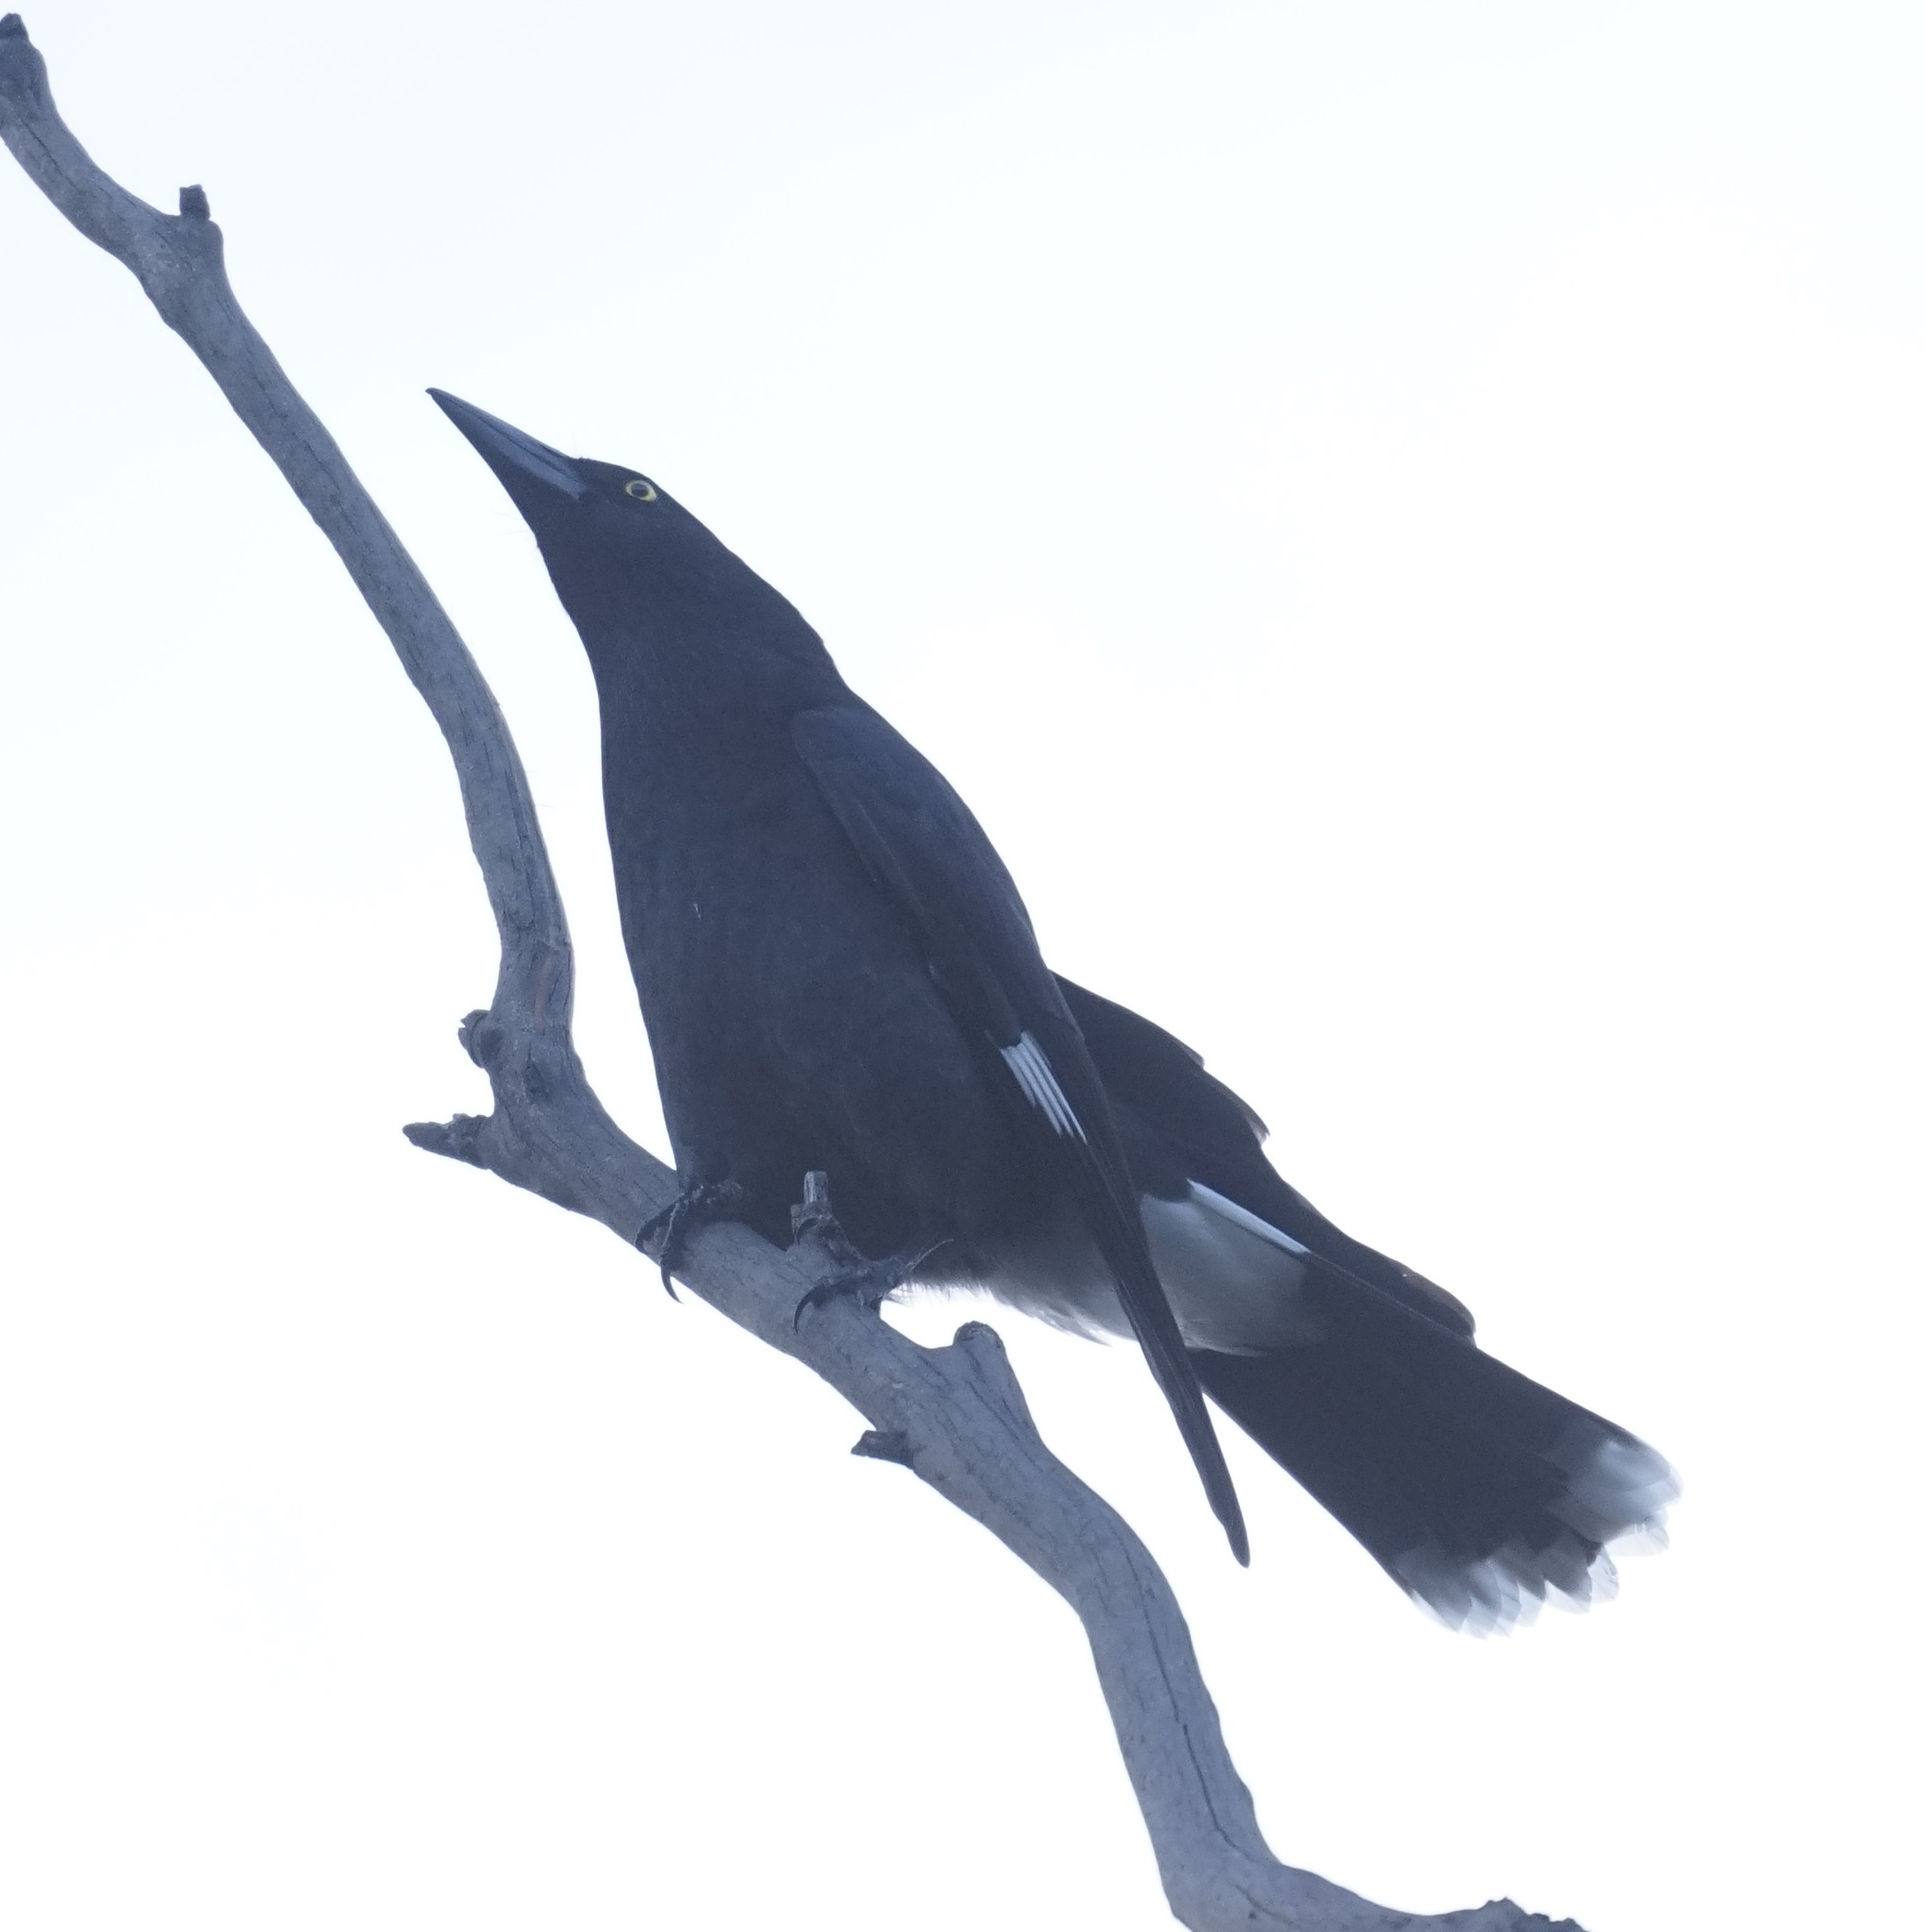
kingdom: Animalia
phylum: Chordata
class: Aves
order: Passeriformes
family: Cracticidae
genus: Strepera
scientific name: Strepera graculina
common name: Pied currawong
